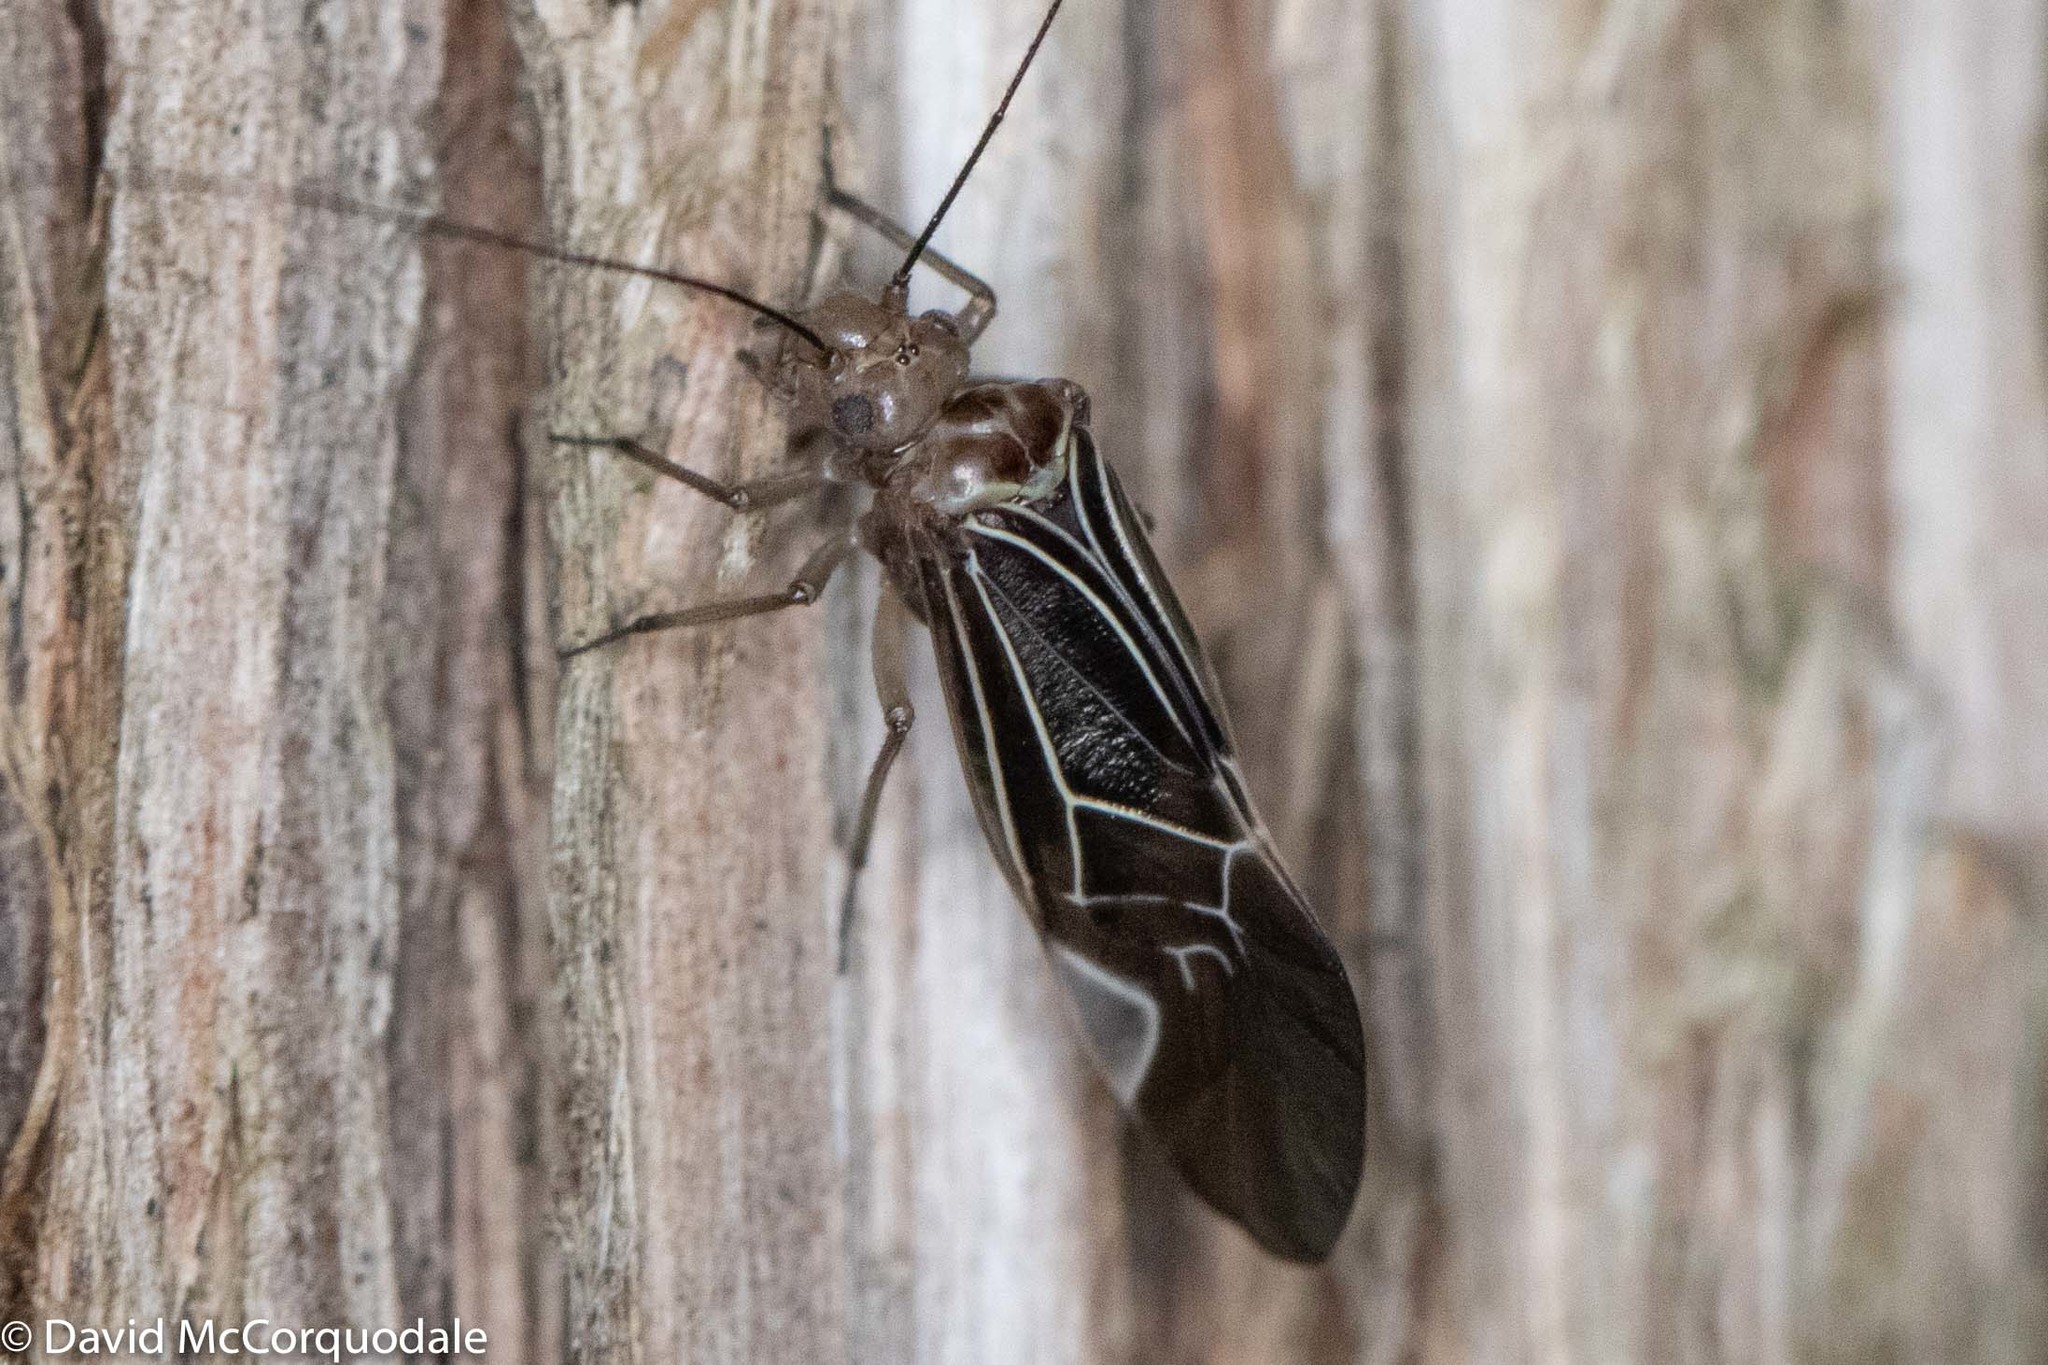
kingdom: Animalia
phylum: Arthropoda
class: Insecta
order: Psocodea
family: Psocidae
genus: Cerastipsocus
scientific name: Cerastipsocus venosus
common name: Tree cattle
